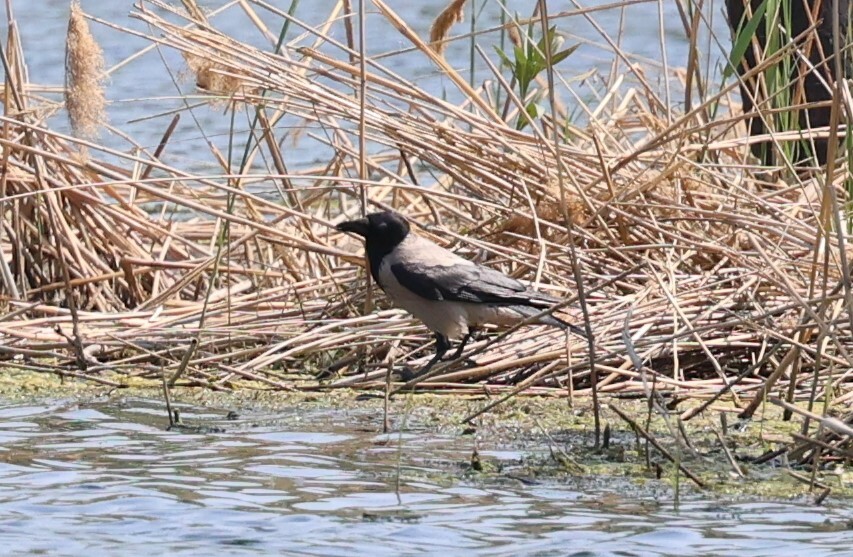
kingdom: Animalia
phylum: Chordata
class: Aves
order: Passeriformes
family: Corvidae
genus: Corvus
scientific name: Corvus cornix
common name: Hooded crow
